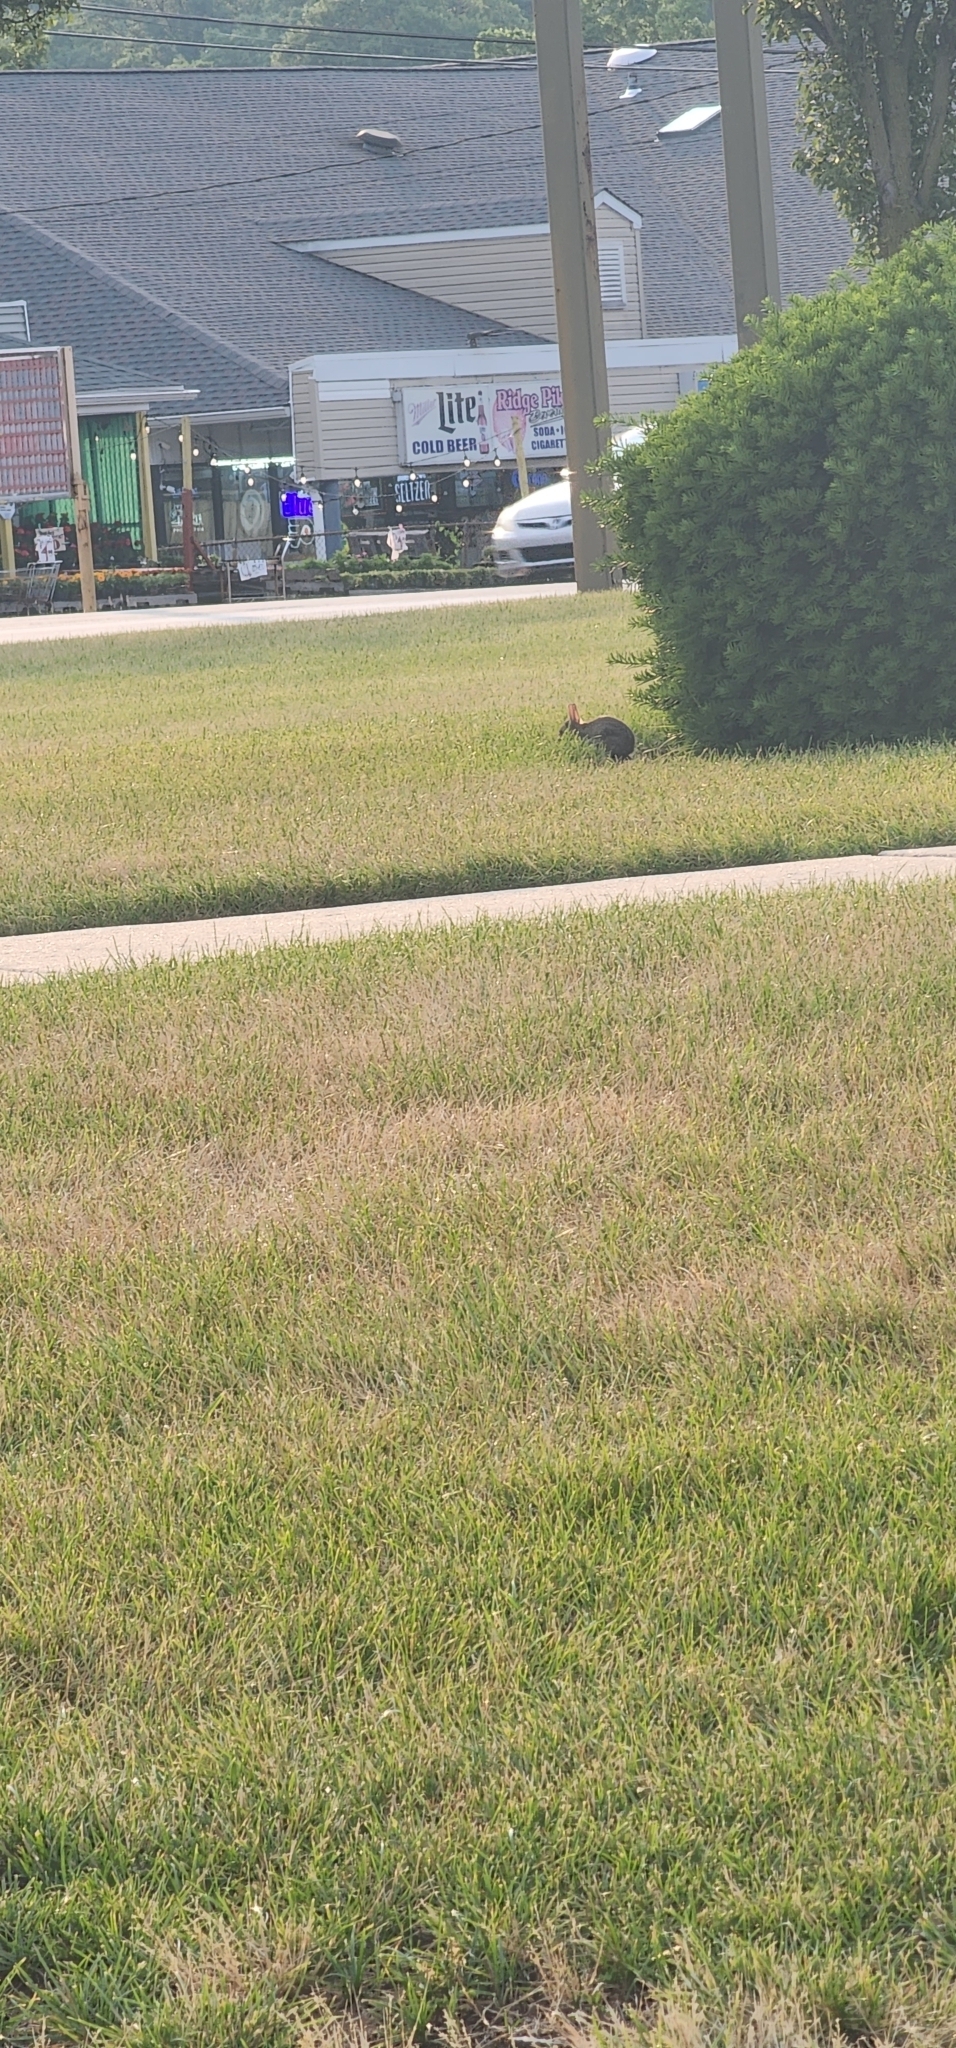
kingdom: Animalia
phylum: Chordata
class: Mammalia
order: Lagomorpha
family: Leporidae
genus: Sylvilagus
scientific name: Sylvilagus floridanus
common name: Eastern cottontail
